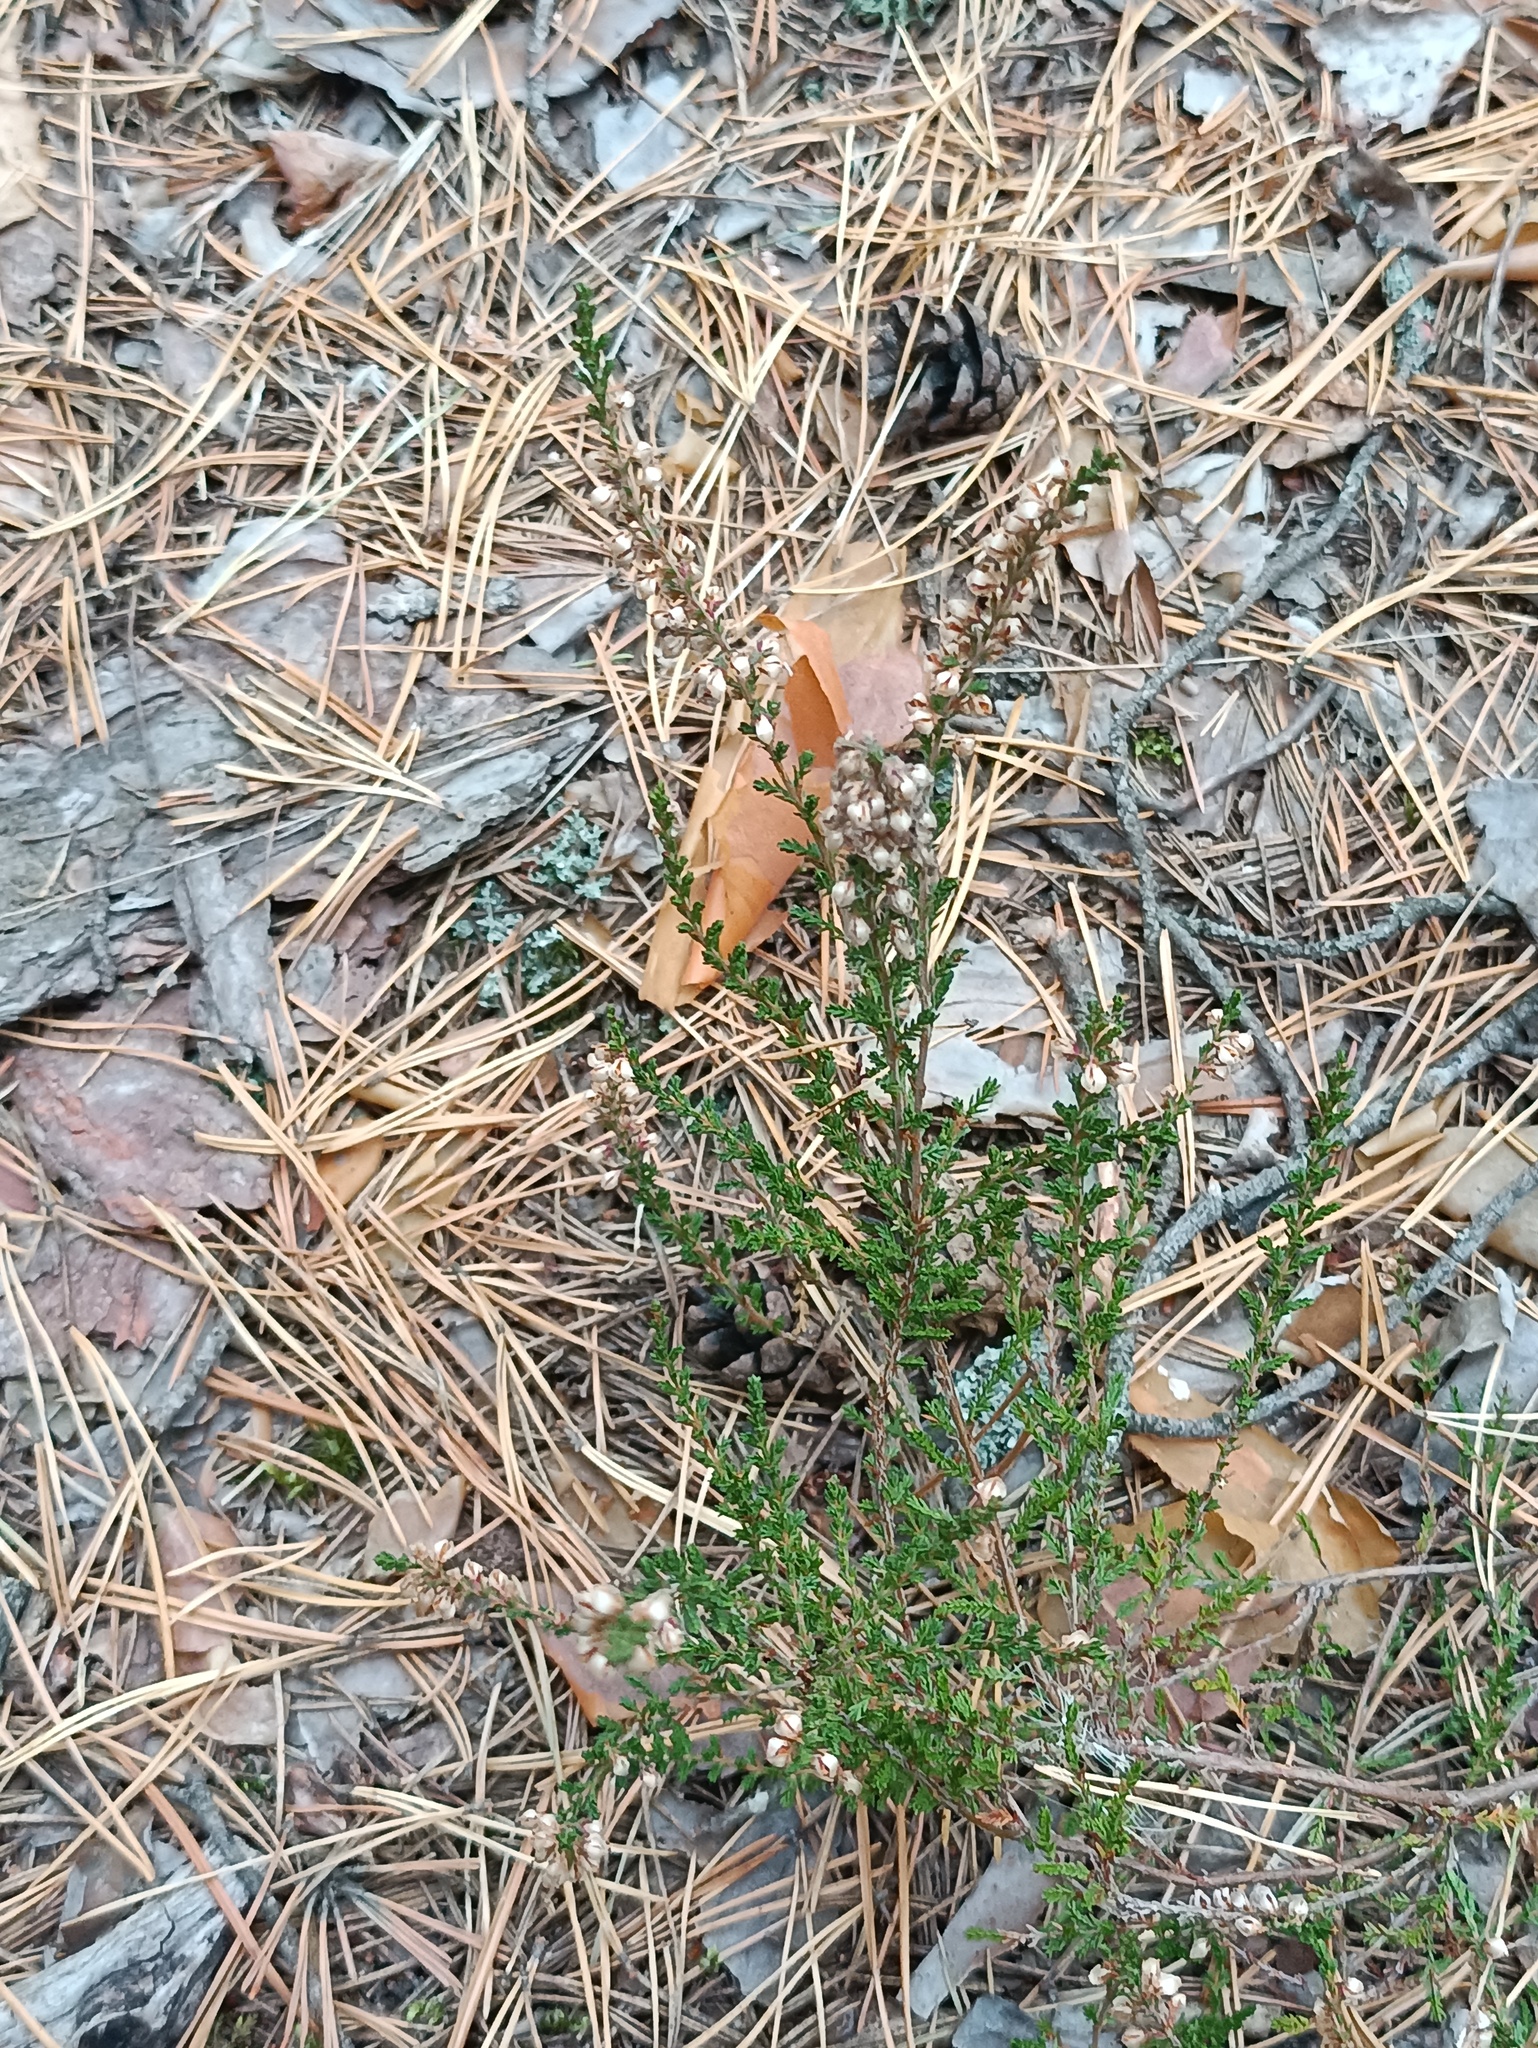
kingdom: Plantae
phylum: Tracheophyta
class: Magnoliopsida
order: Ericales
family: Ericaceae
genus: Calluna
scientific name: Calluna vulgaris
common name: Heather
